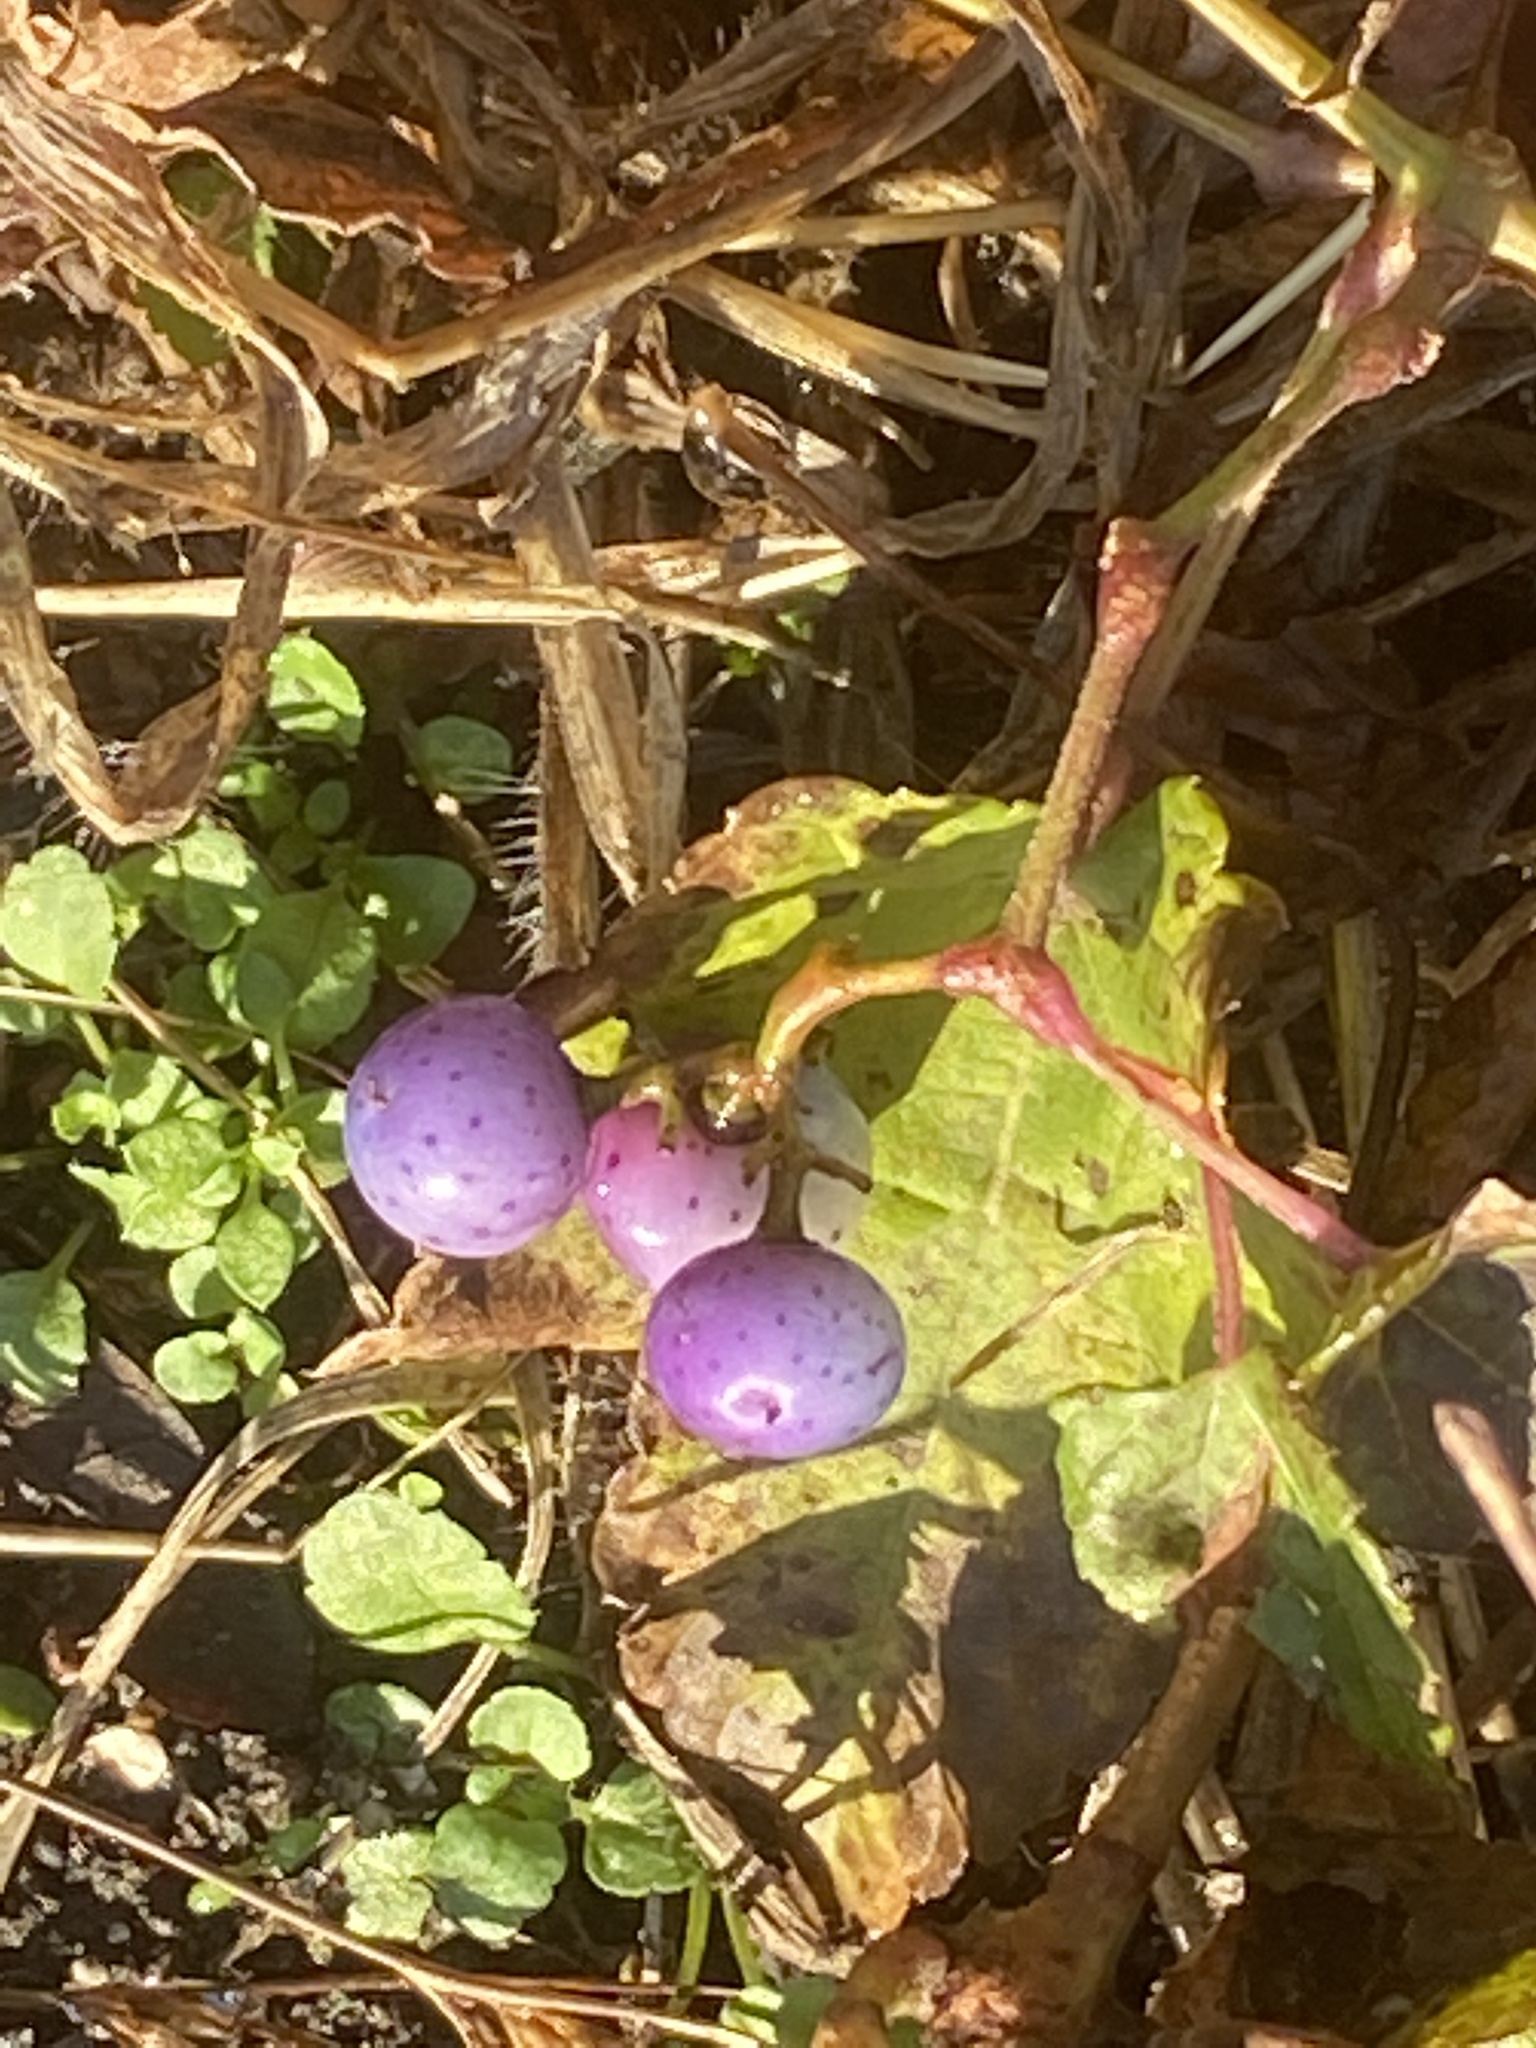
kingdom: Plantae
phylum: Tracheophyta
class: Magnoliopsida
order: Vitales
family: Vitaceae
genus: Ampelopsis
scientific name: Ampelopsis glandulosa
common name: Amur peppervine
